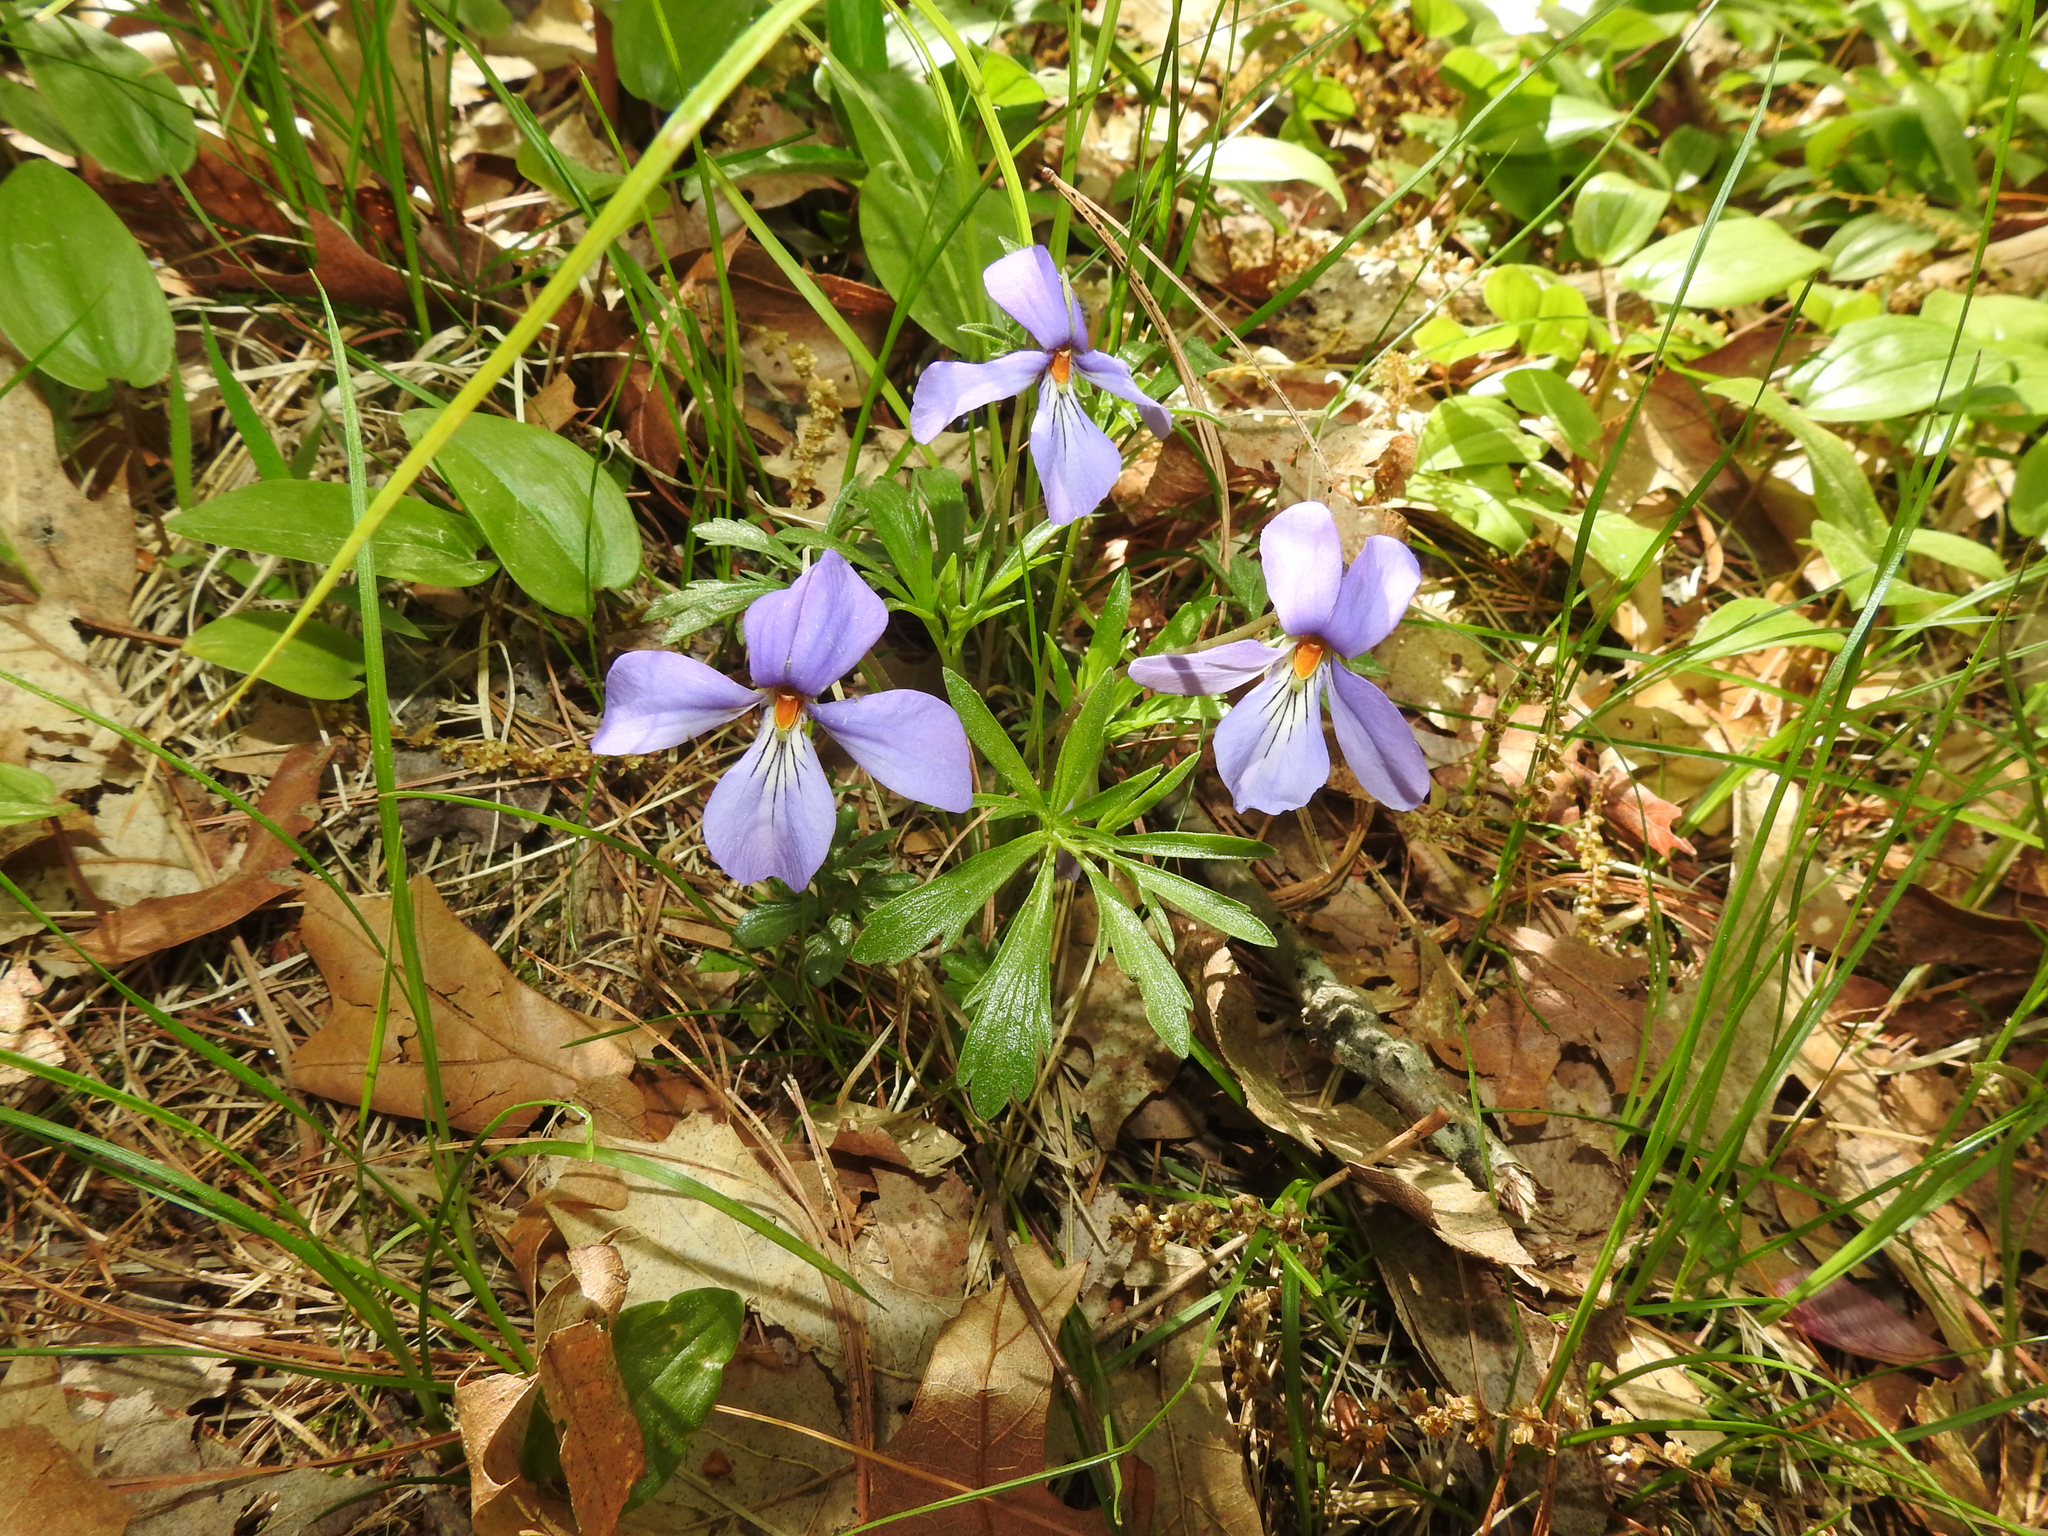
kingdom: Plantae
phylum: Tracheophyta
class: Magnoliopsida
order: Malpighiales
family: Violaceae
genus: Viola
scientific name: Viola pedata
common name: Pansy violet
